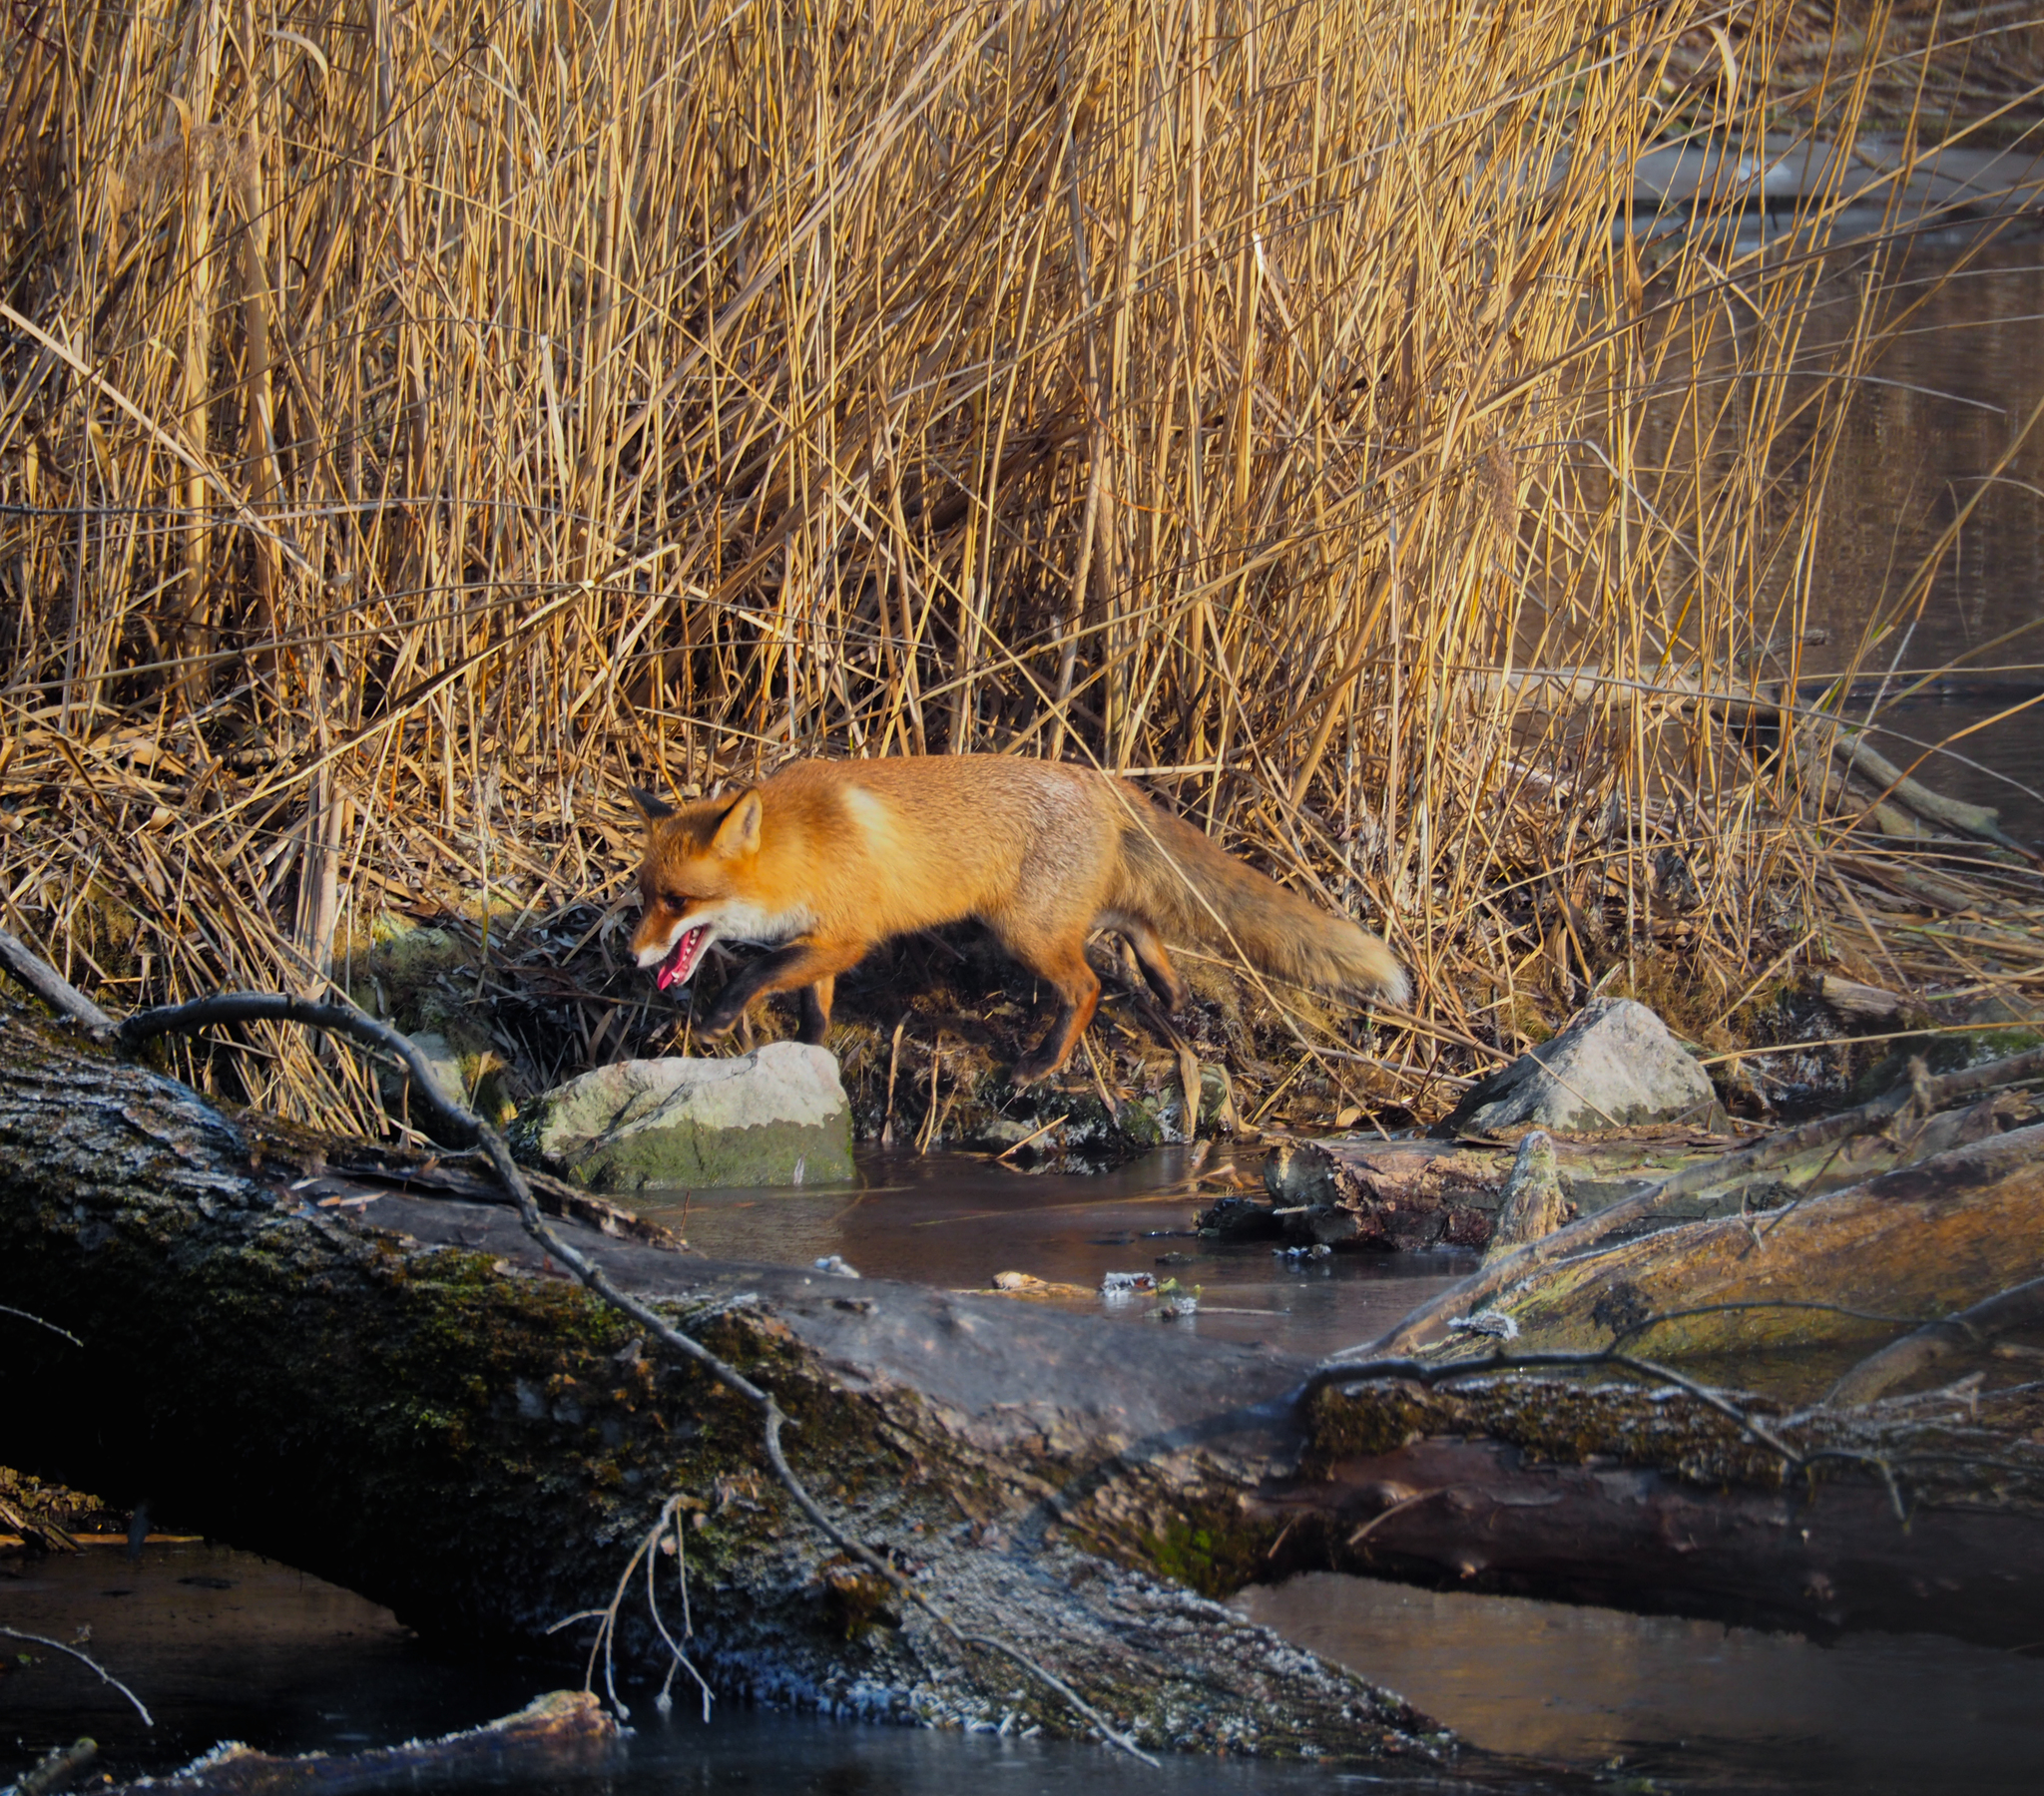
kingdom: Animalia
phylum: Chordata
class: Mammalia
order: Carnivora
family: Canidae
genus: Vulpes
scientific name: Vulpes vulpes
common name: Red fox
